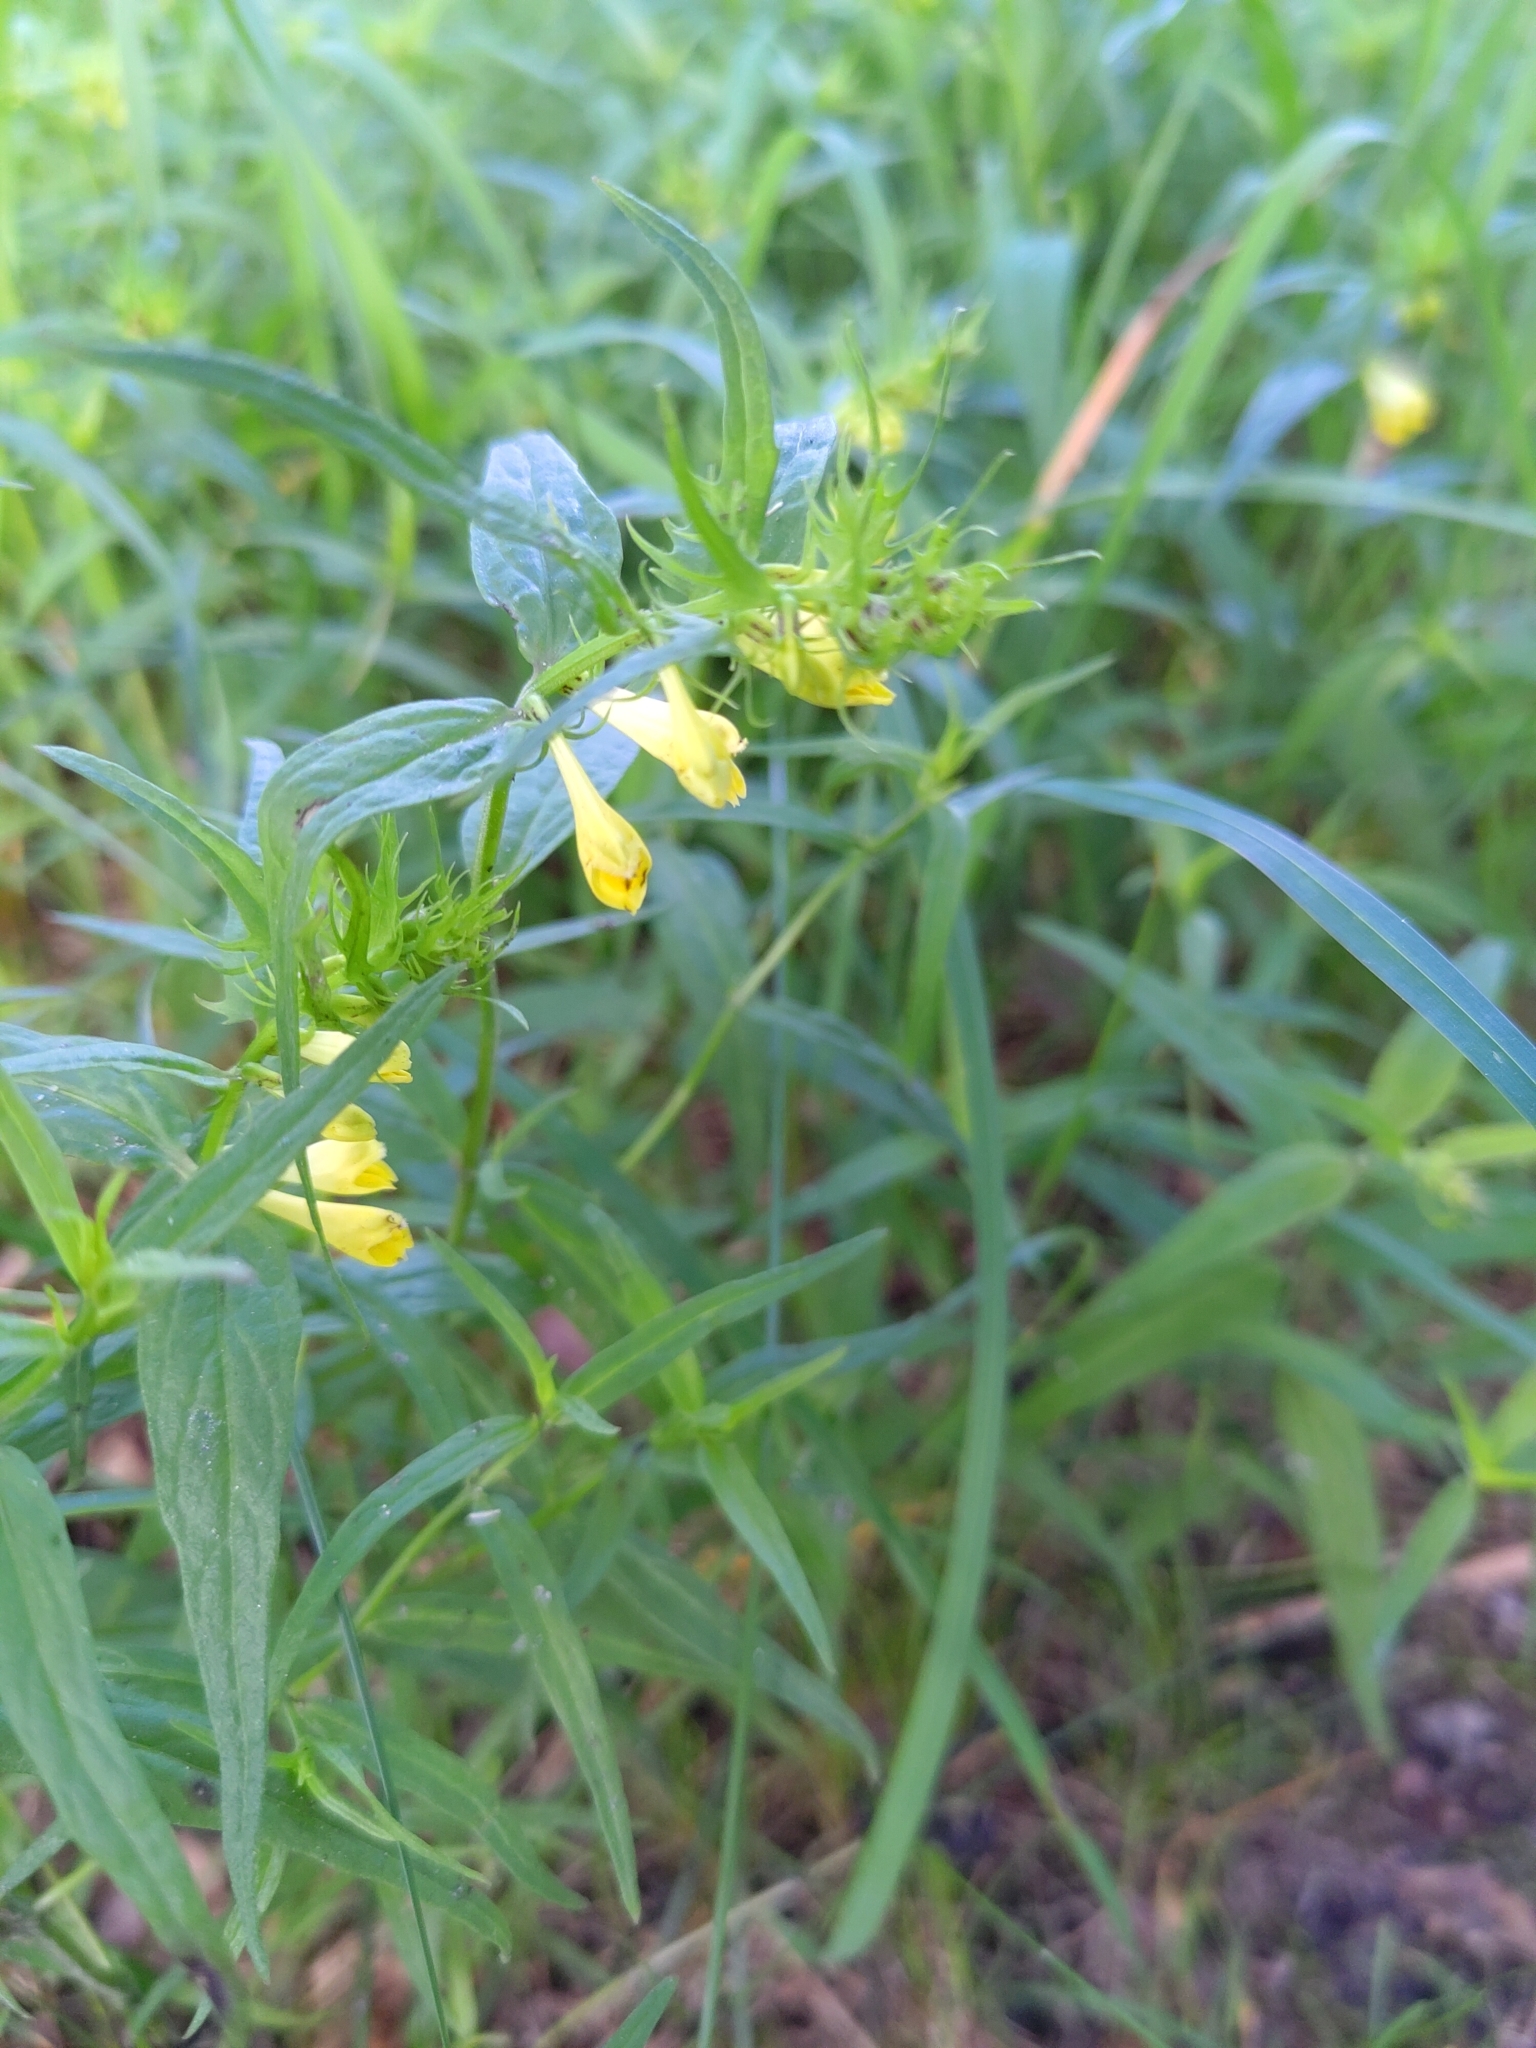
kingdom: Plantae
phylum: Tracheophyta
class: Magnoliopsida
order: Lamiales
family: Orobanchaceae
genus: Melampyrum
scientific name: Melampyrum pratense
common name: Common cow-wheat
